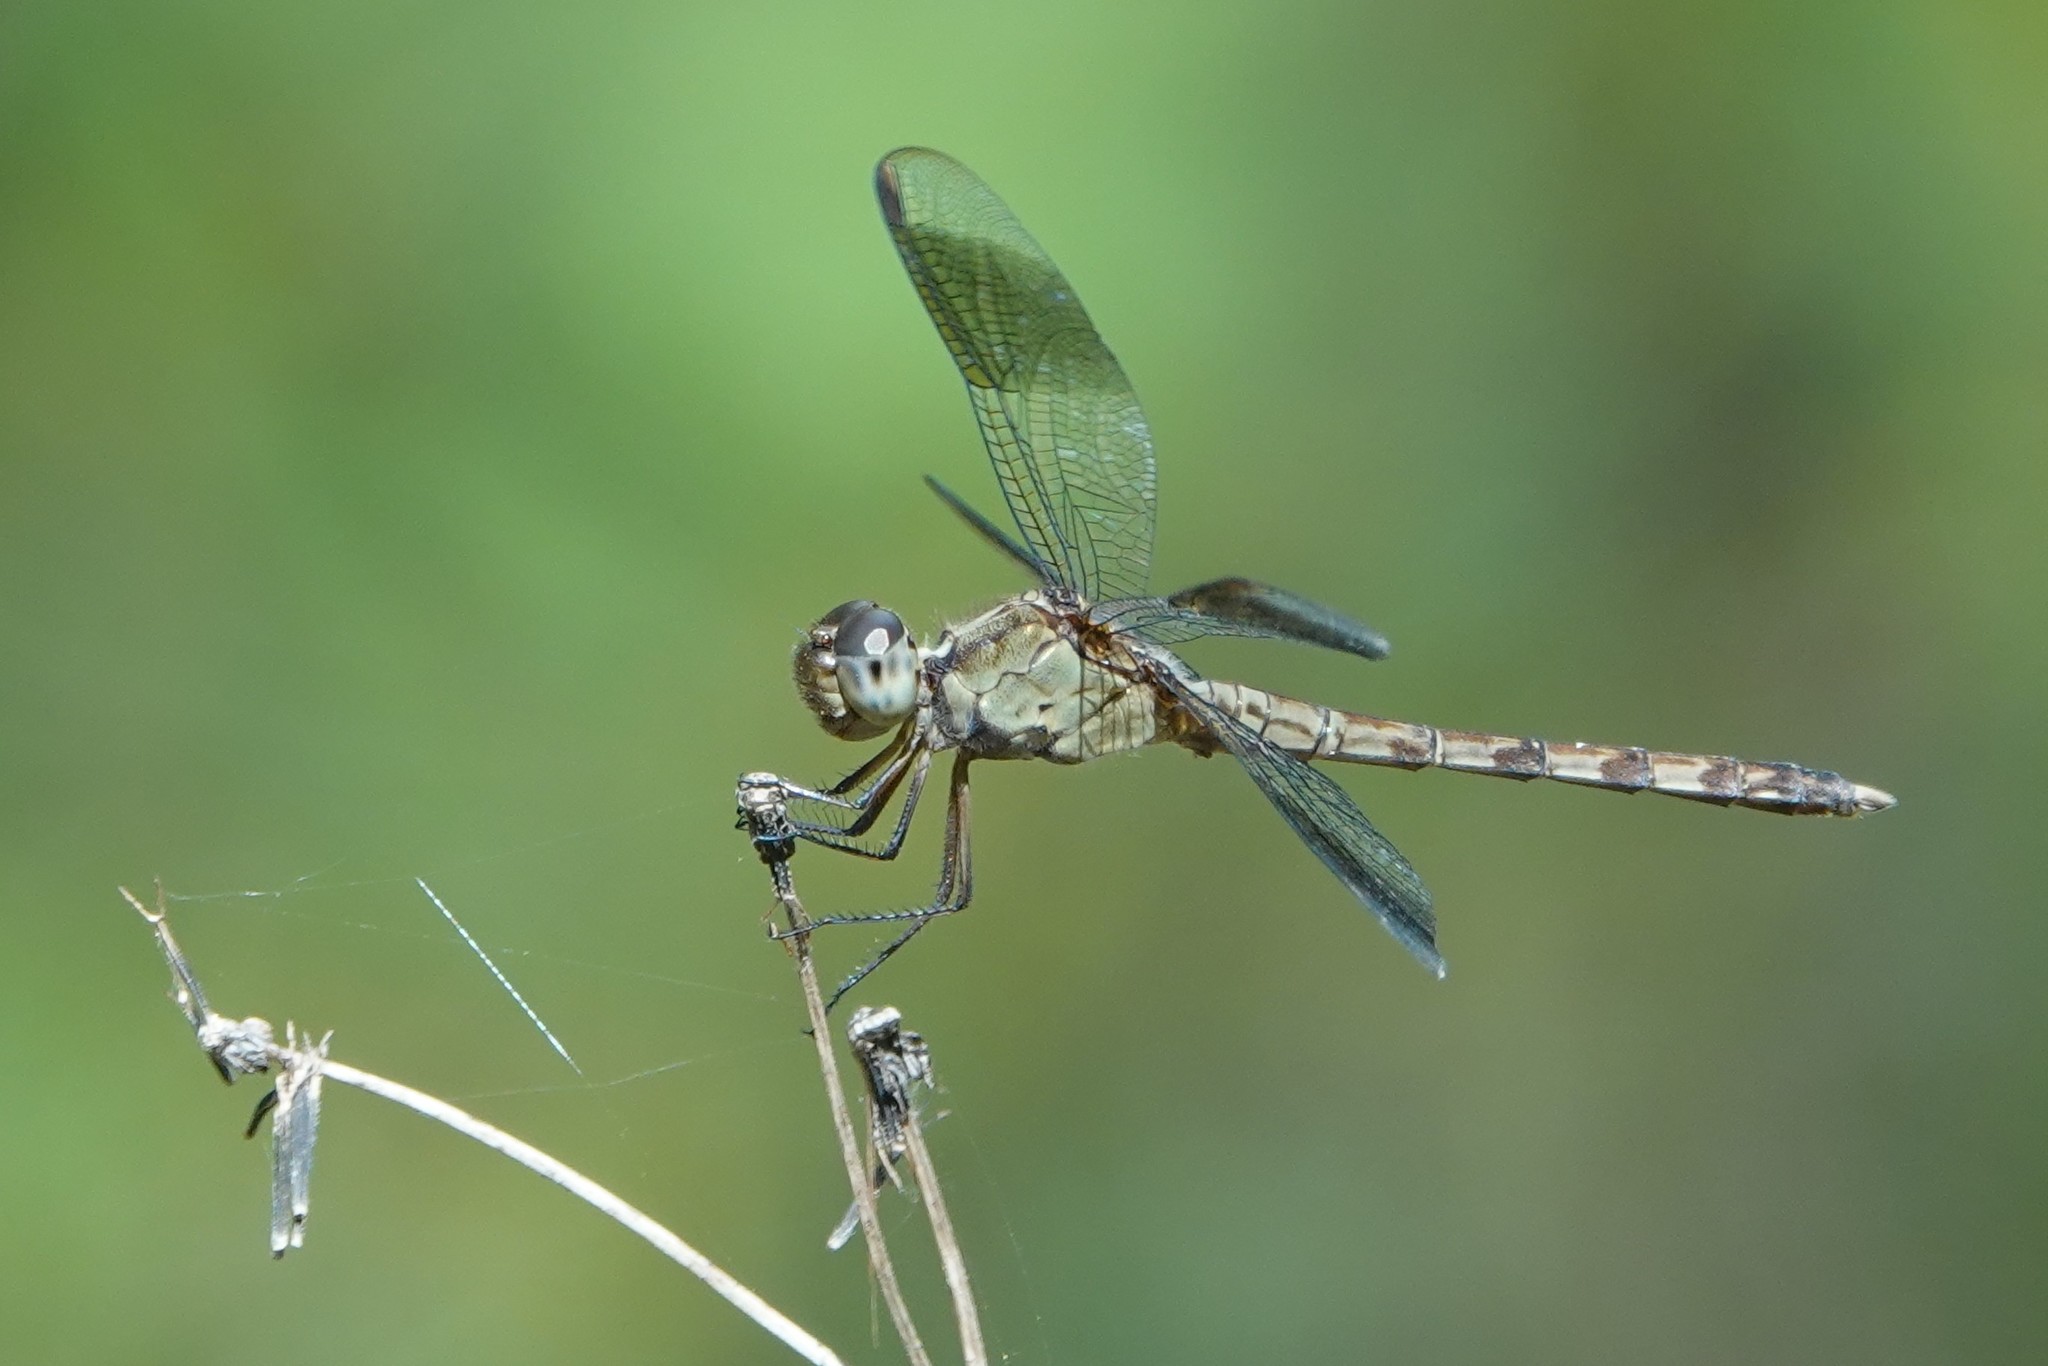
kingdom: Animalia
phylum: Arthropoda
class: Insecta
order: Odonata
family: Libellulidae
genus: Erythrodiplax
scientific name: Erythrodiplax umbrata
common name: Band-winged dragonlet
